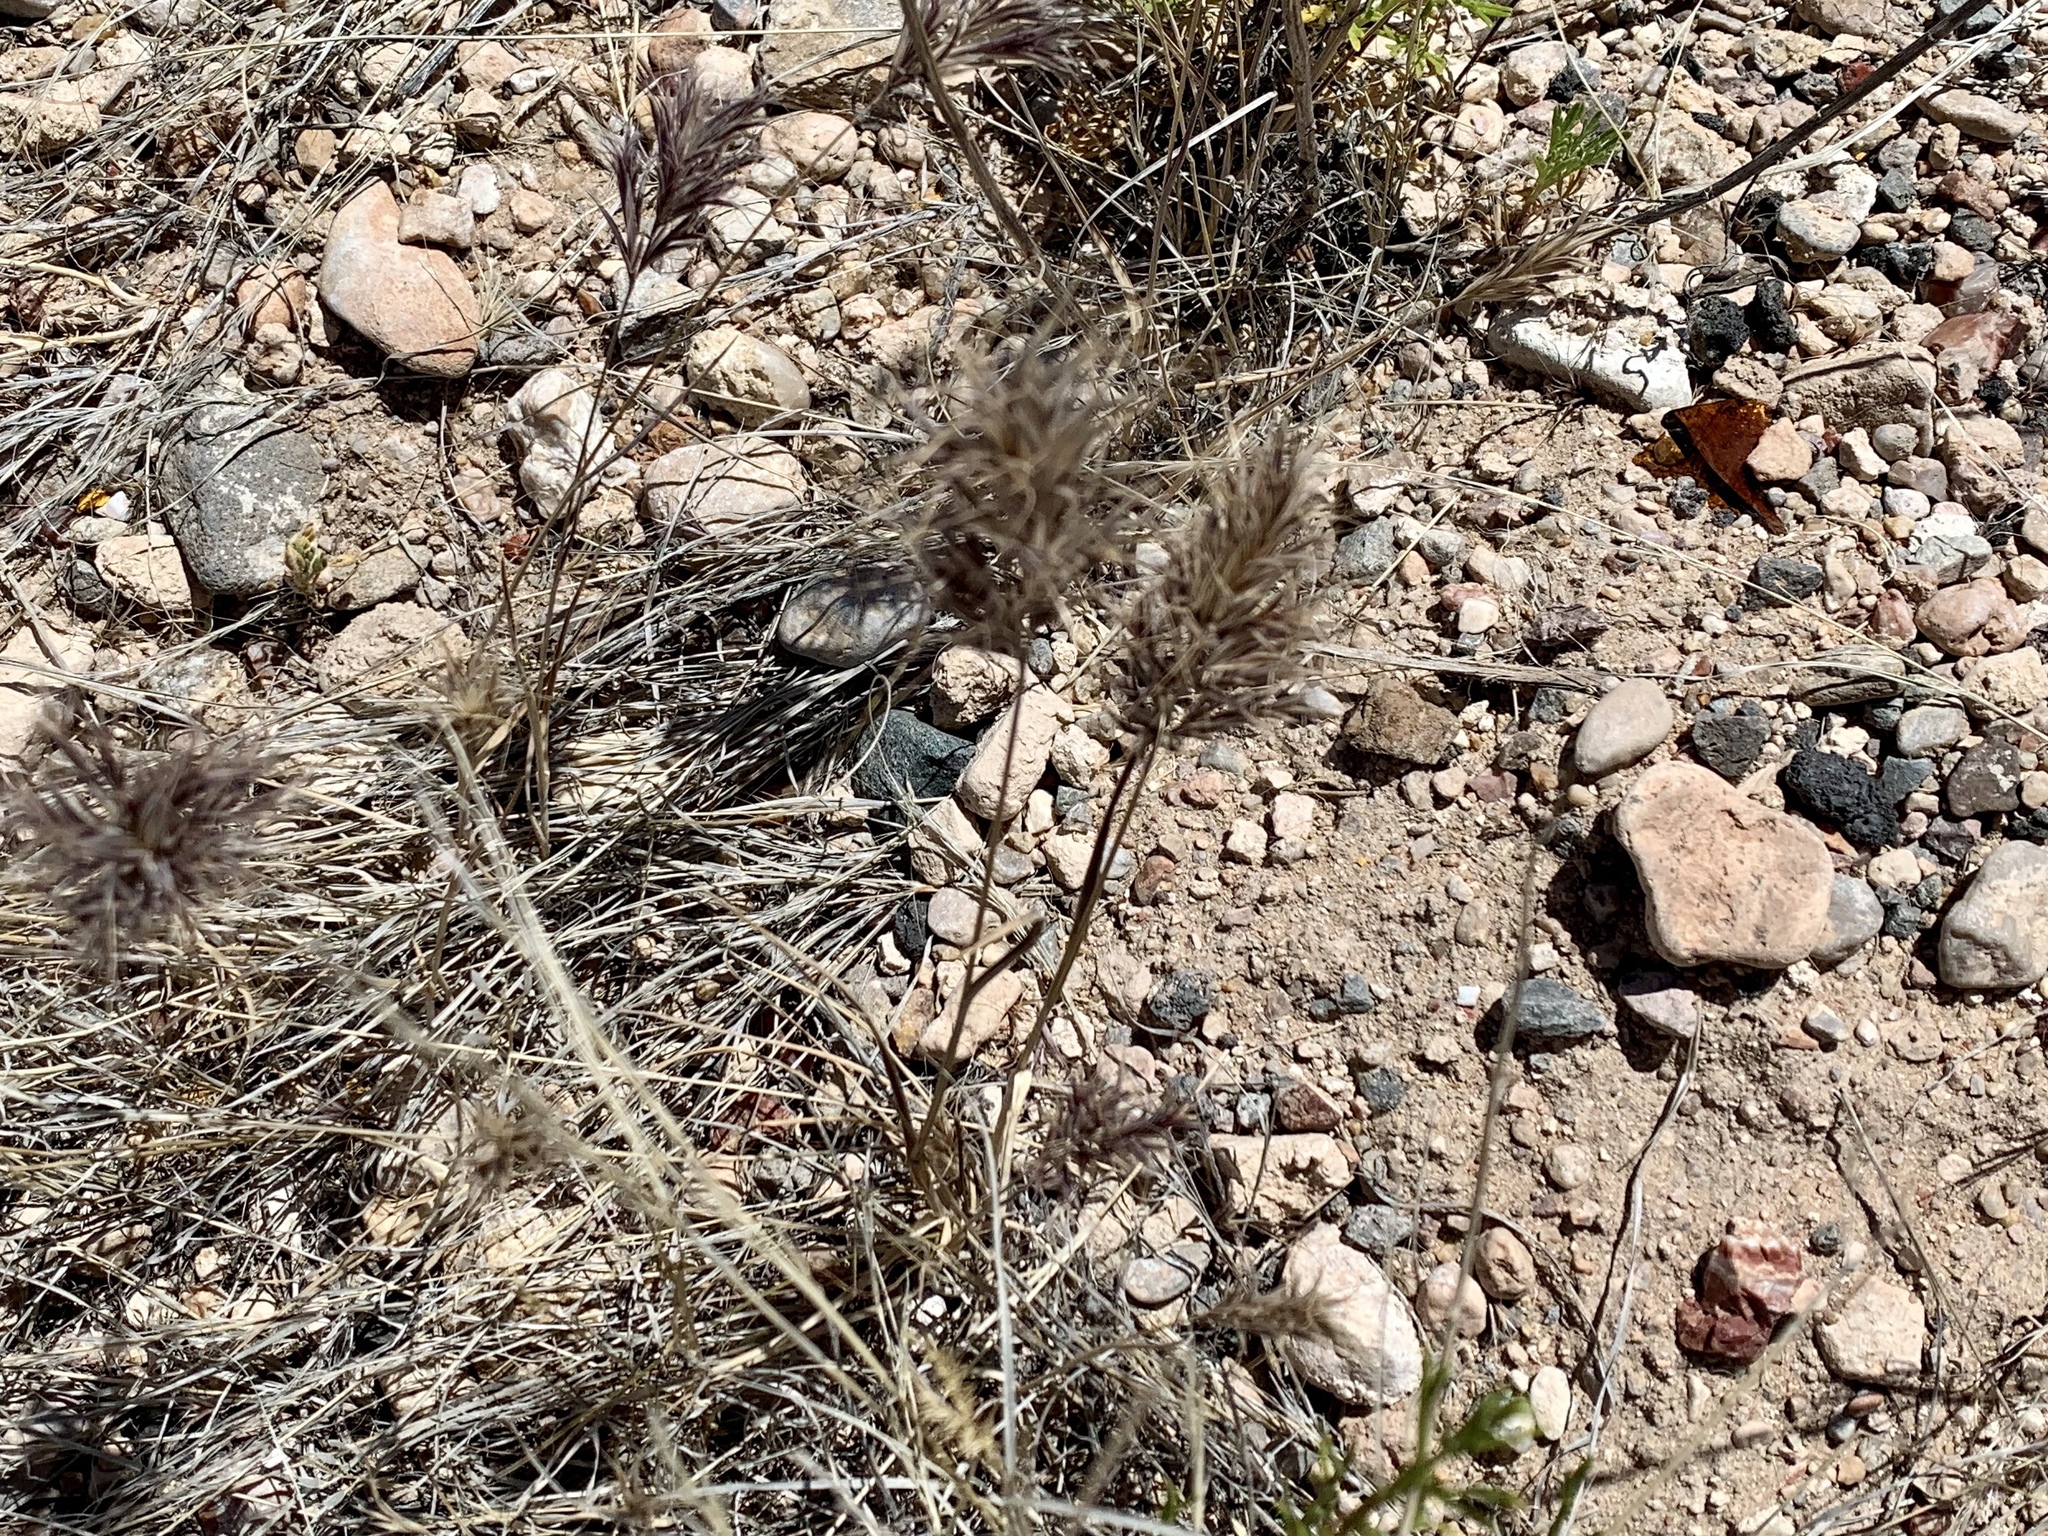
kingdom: Plantae
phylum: Tracheophyta
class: Liliopsida
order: Poales
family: Poaceae
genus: Bromus
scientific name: Bromus rubens
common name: Red brome
